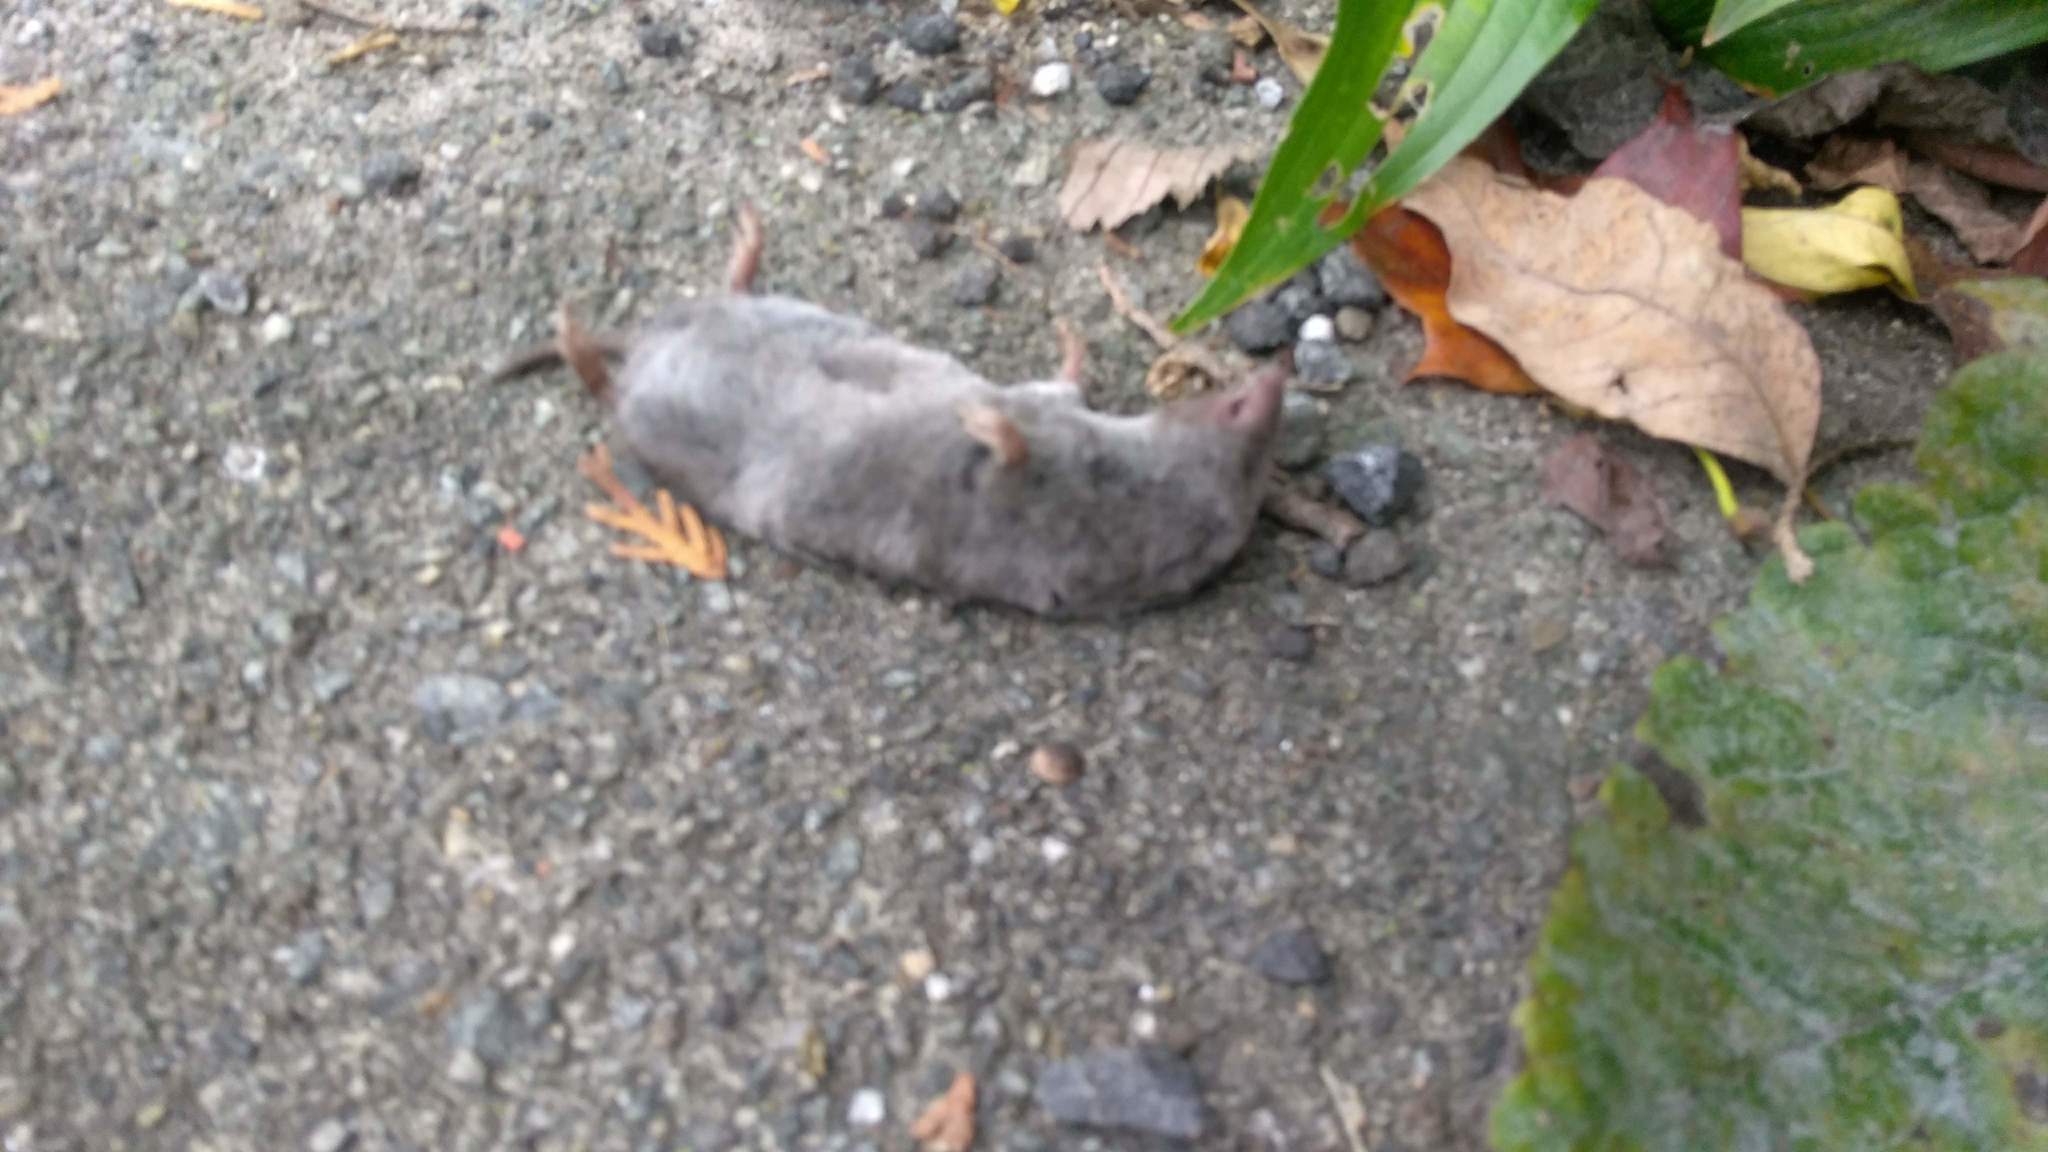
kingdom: Animalia
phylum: Chordata
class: Mammalia
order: Soricomorpha
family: Soricidae
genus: Blarina
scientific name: Blarina brevicauda
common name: Northern short-tailed shrew
